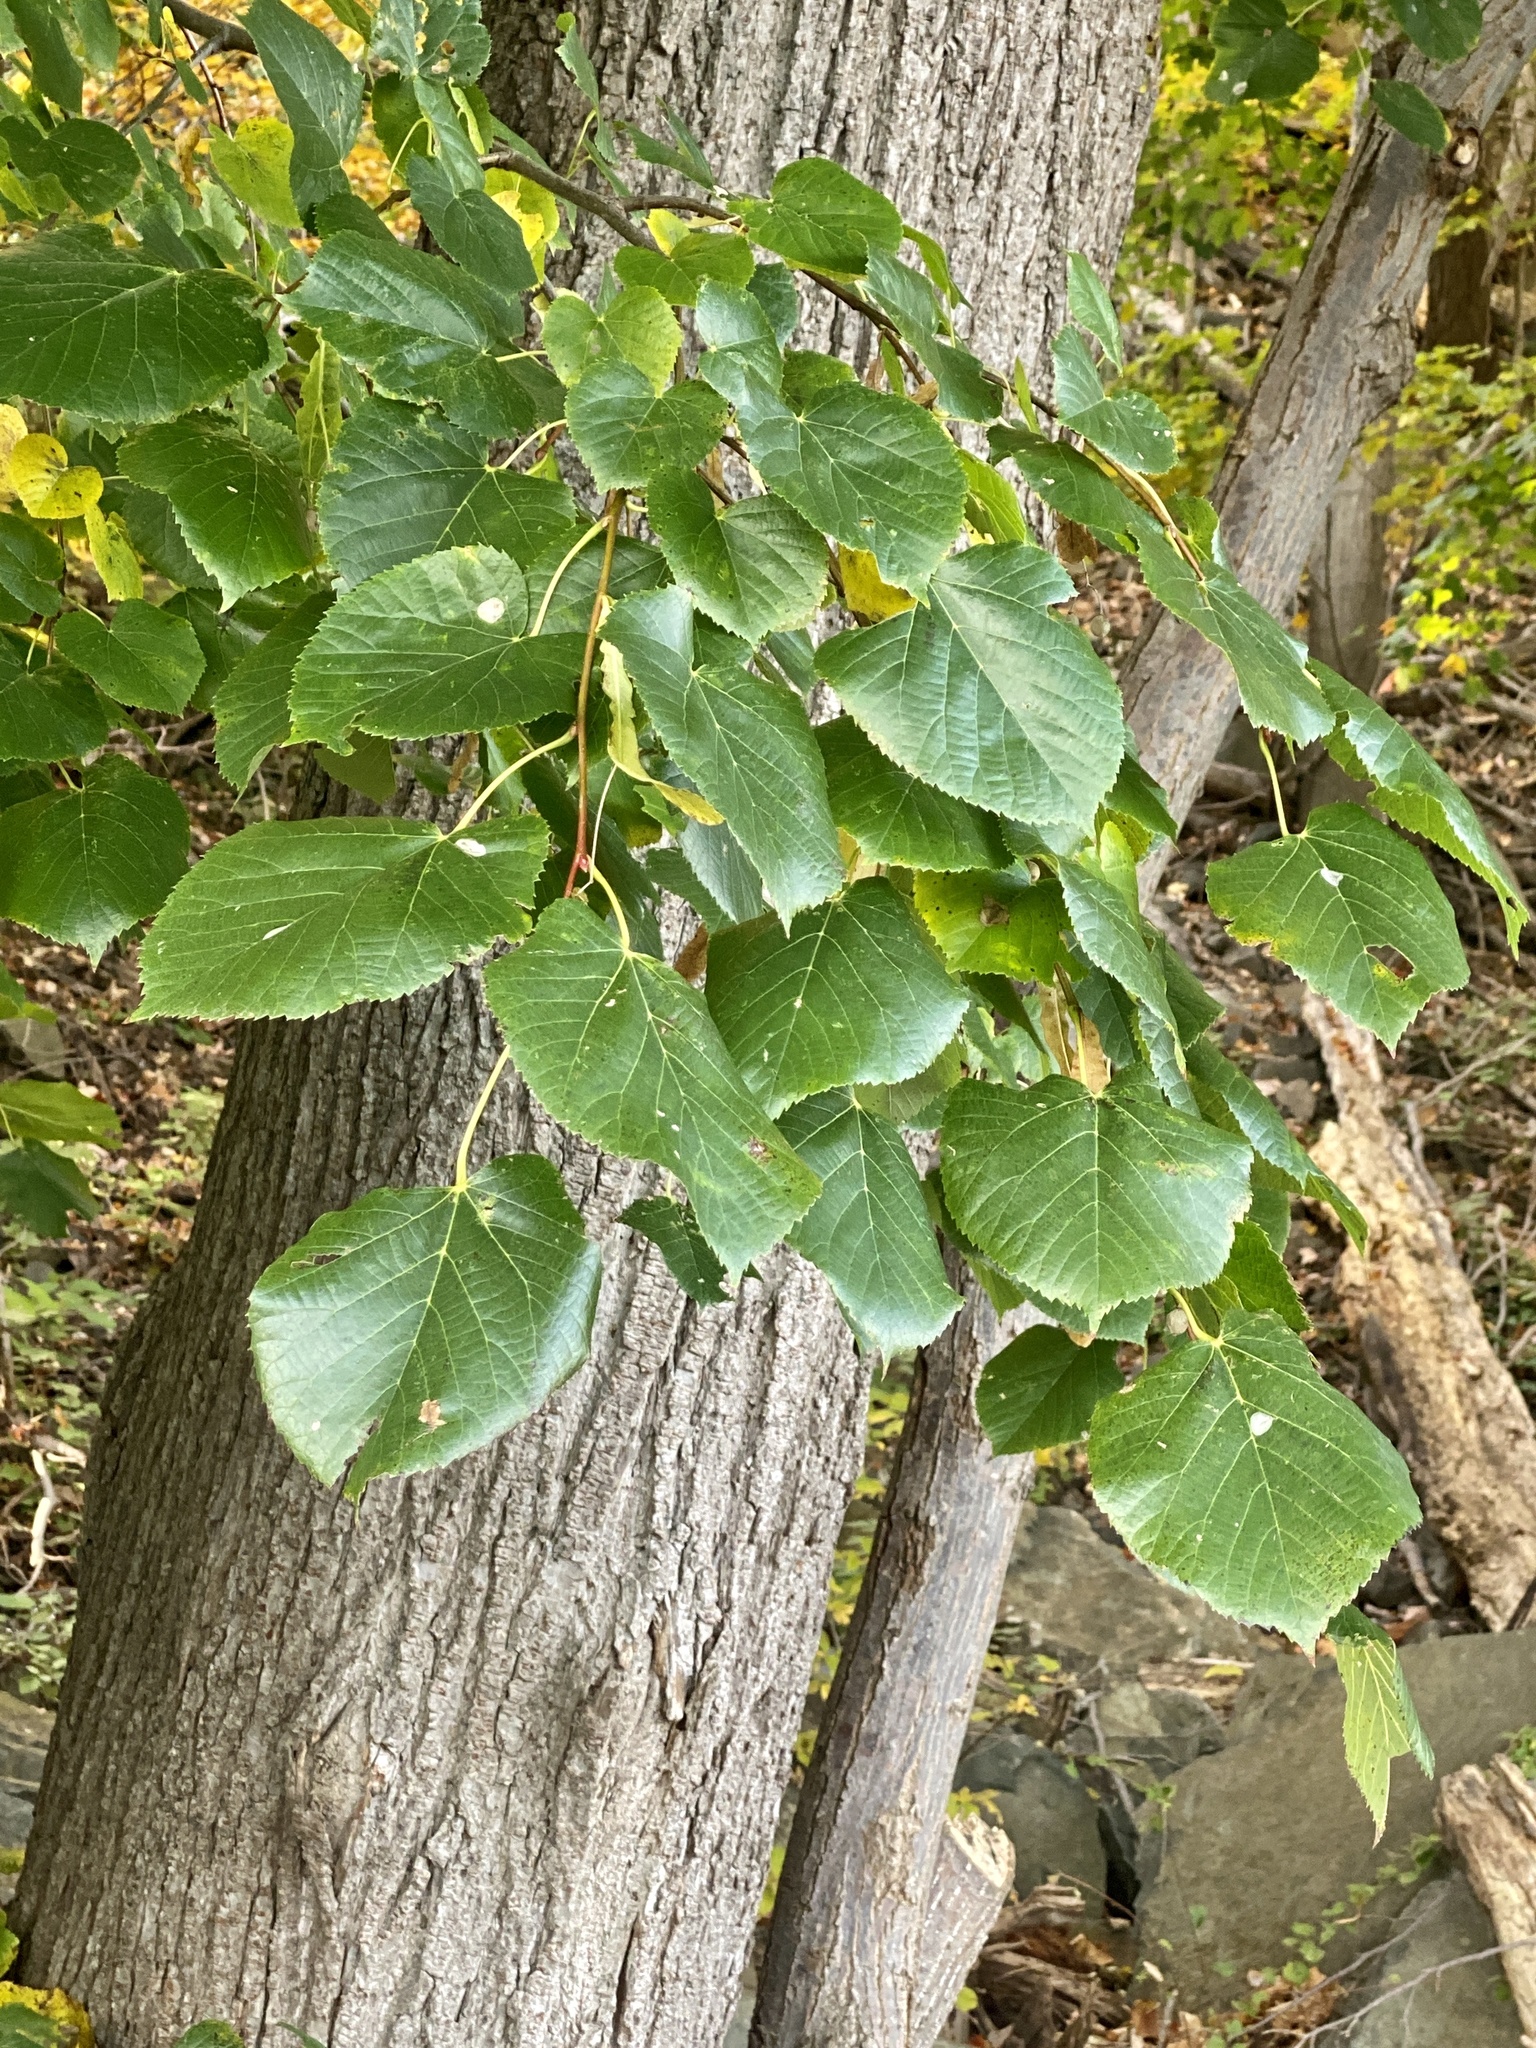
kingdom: Plantae
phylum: Tracheophyta
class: Magnoliopsida
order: Malvales
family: Malvaceae
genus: Tilia
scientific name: Tilia americana
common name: Basswood
